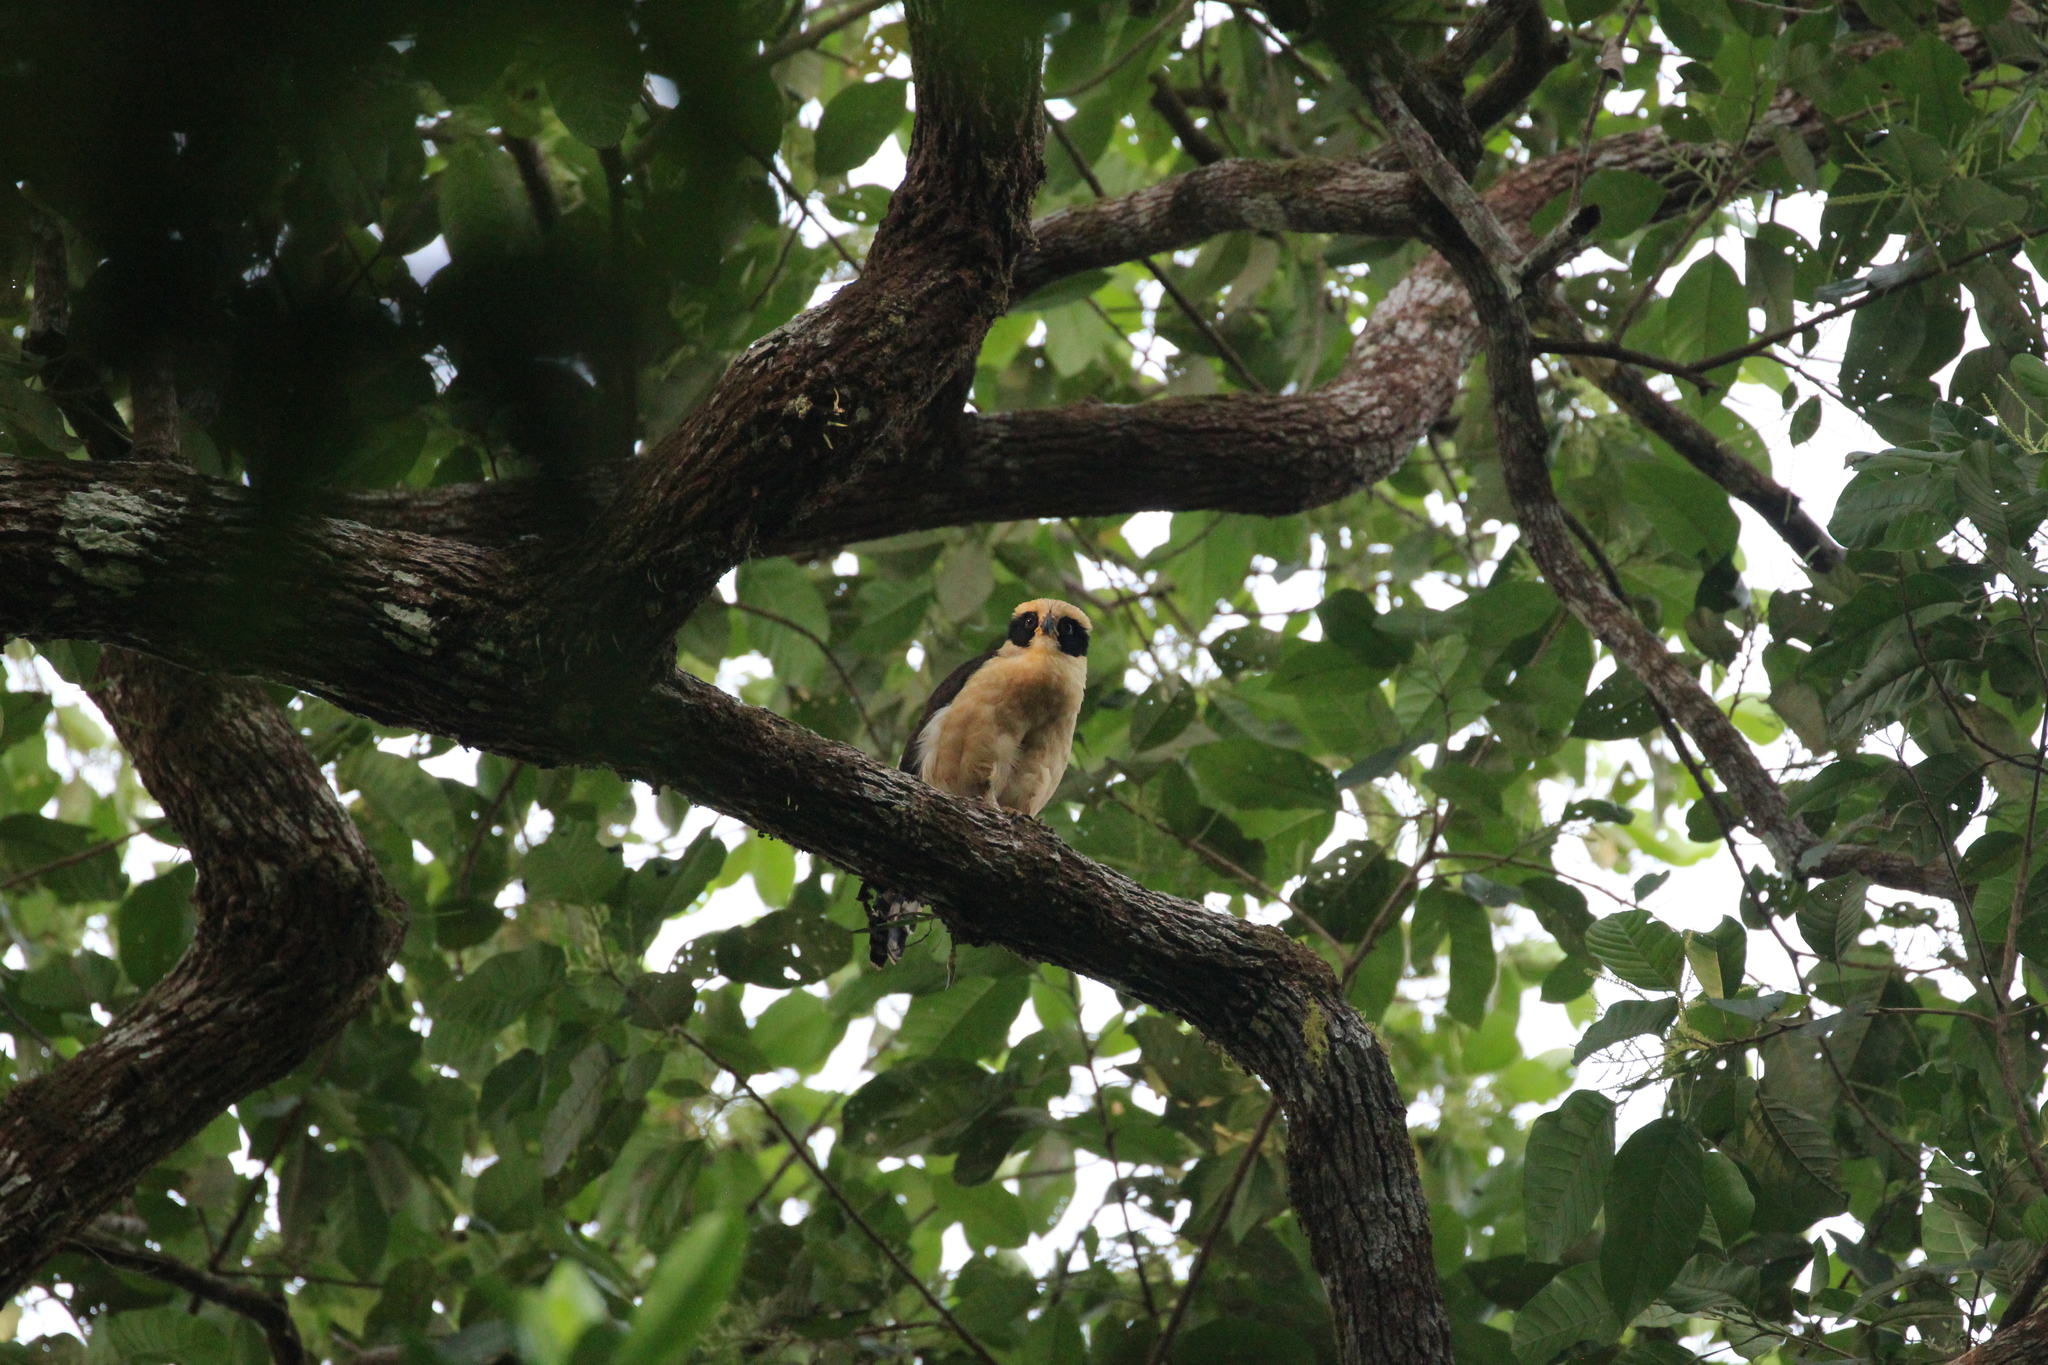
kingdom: Animalia
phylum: Chordata
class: Aves
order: Falconiformes
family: Falconidae
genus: Herpetotheres
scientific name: Herpetotheres cachinnans
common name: Laughing falcon
